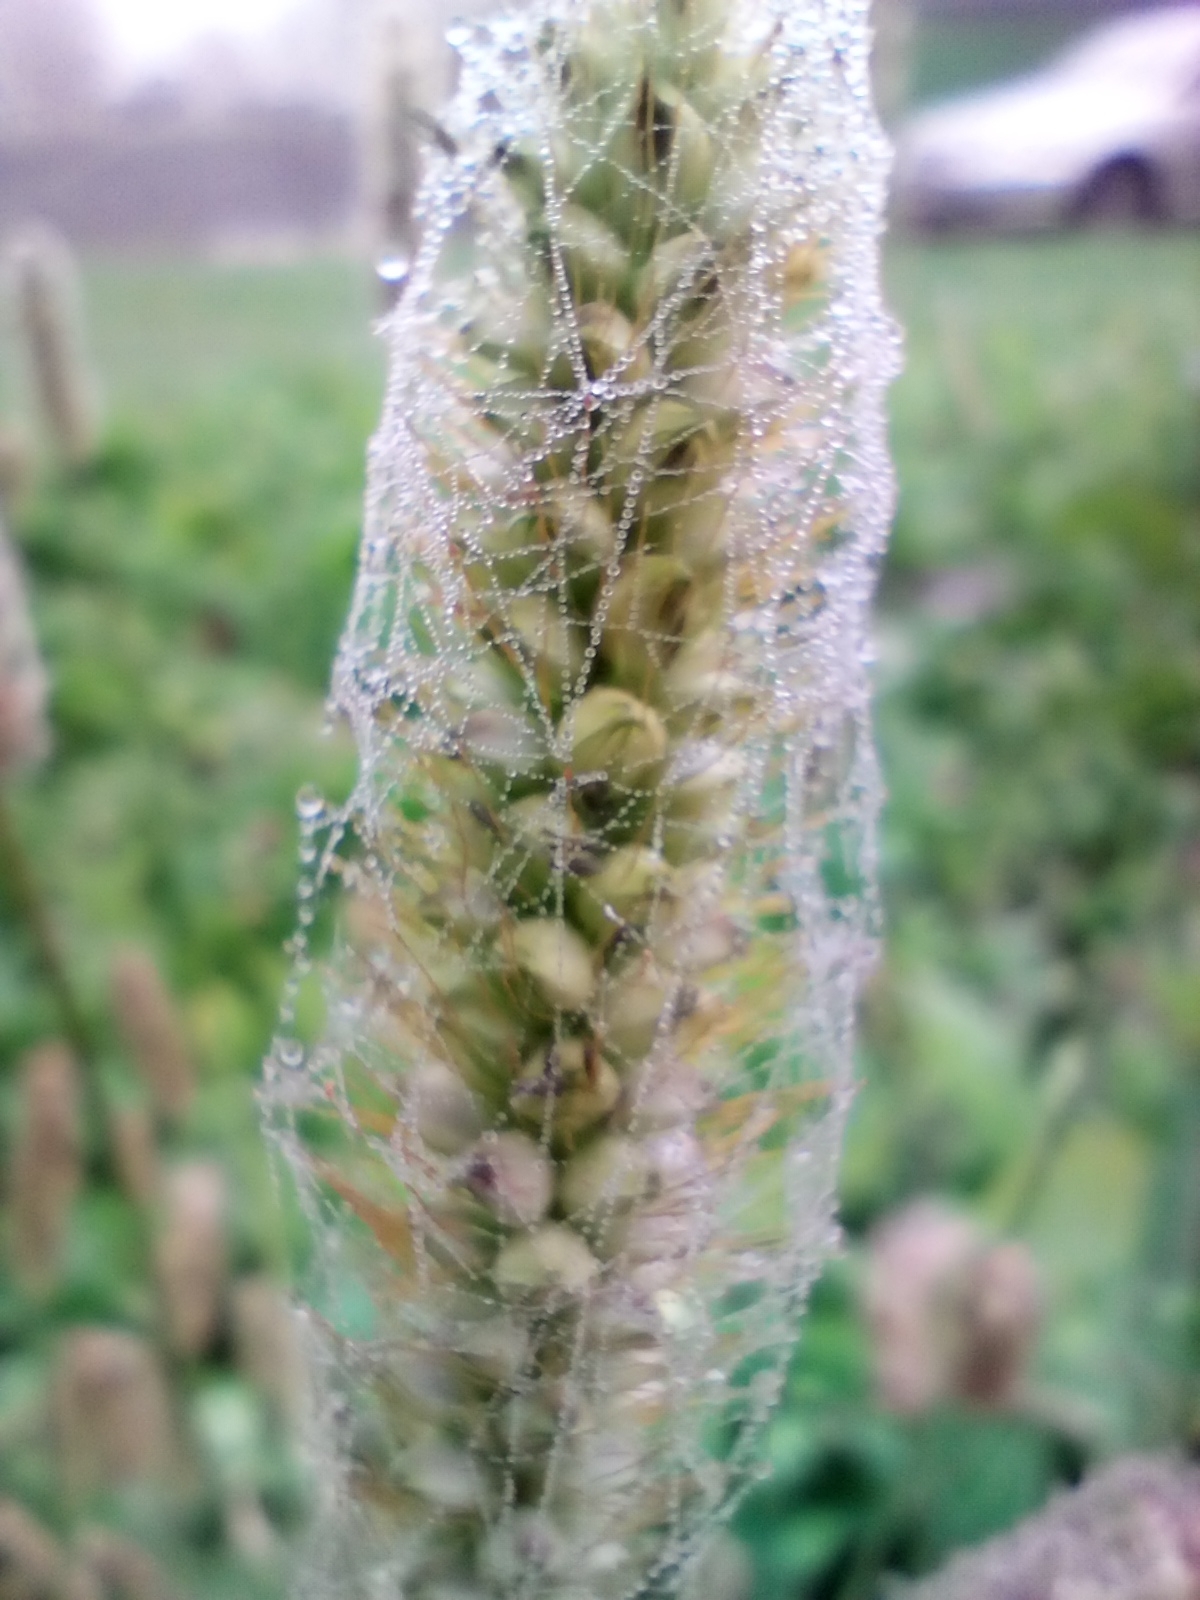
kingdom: Plantae
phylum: Tracheophyta
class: Liliopsida
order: Poales
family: Poaceae
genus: Setaria
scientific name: Setaria pumila
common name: Yellow bristle-grass
